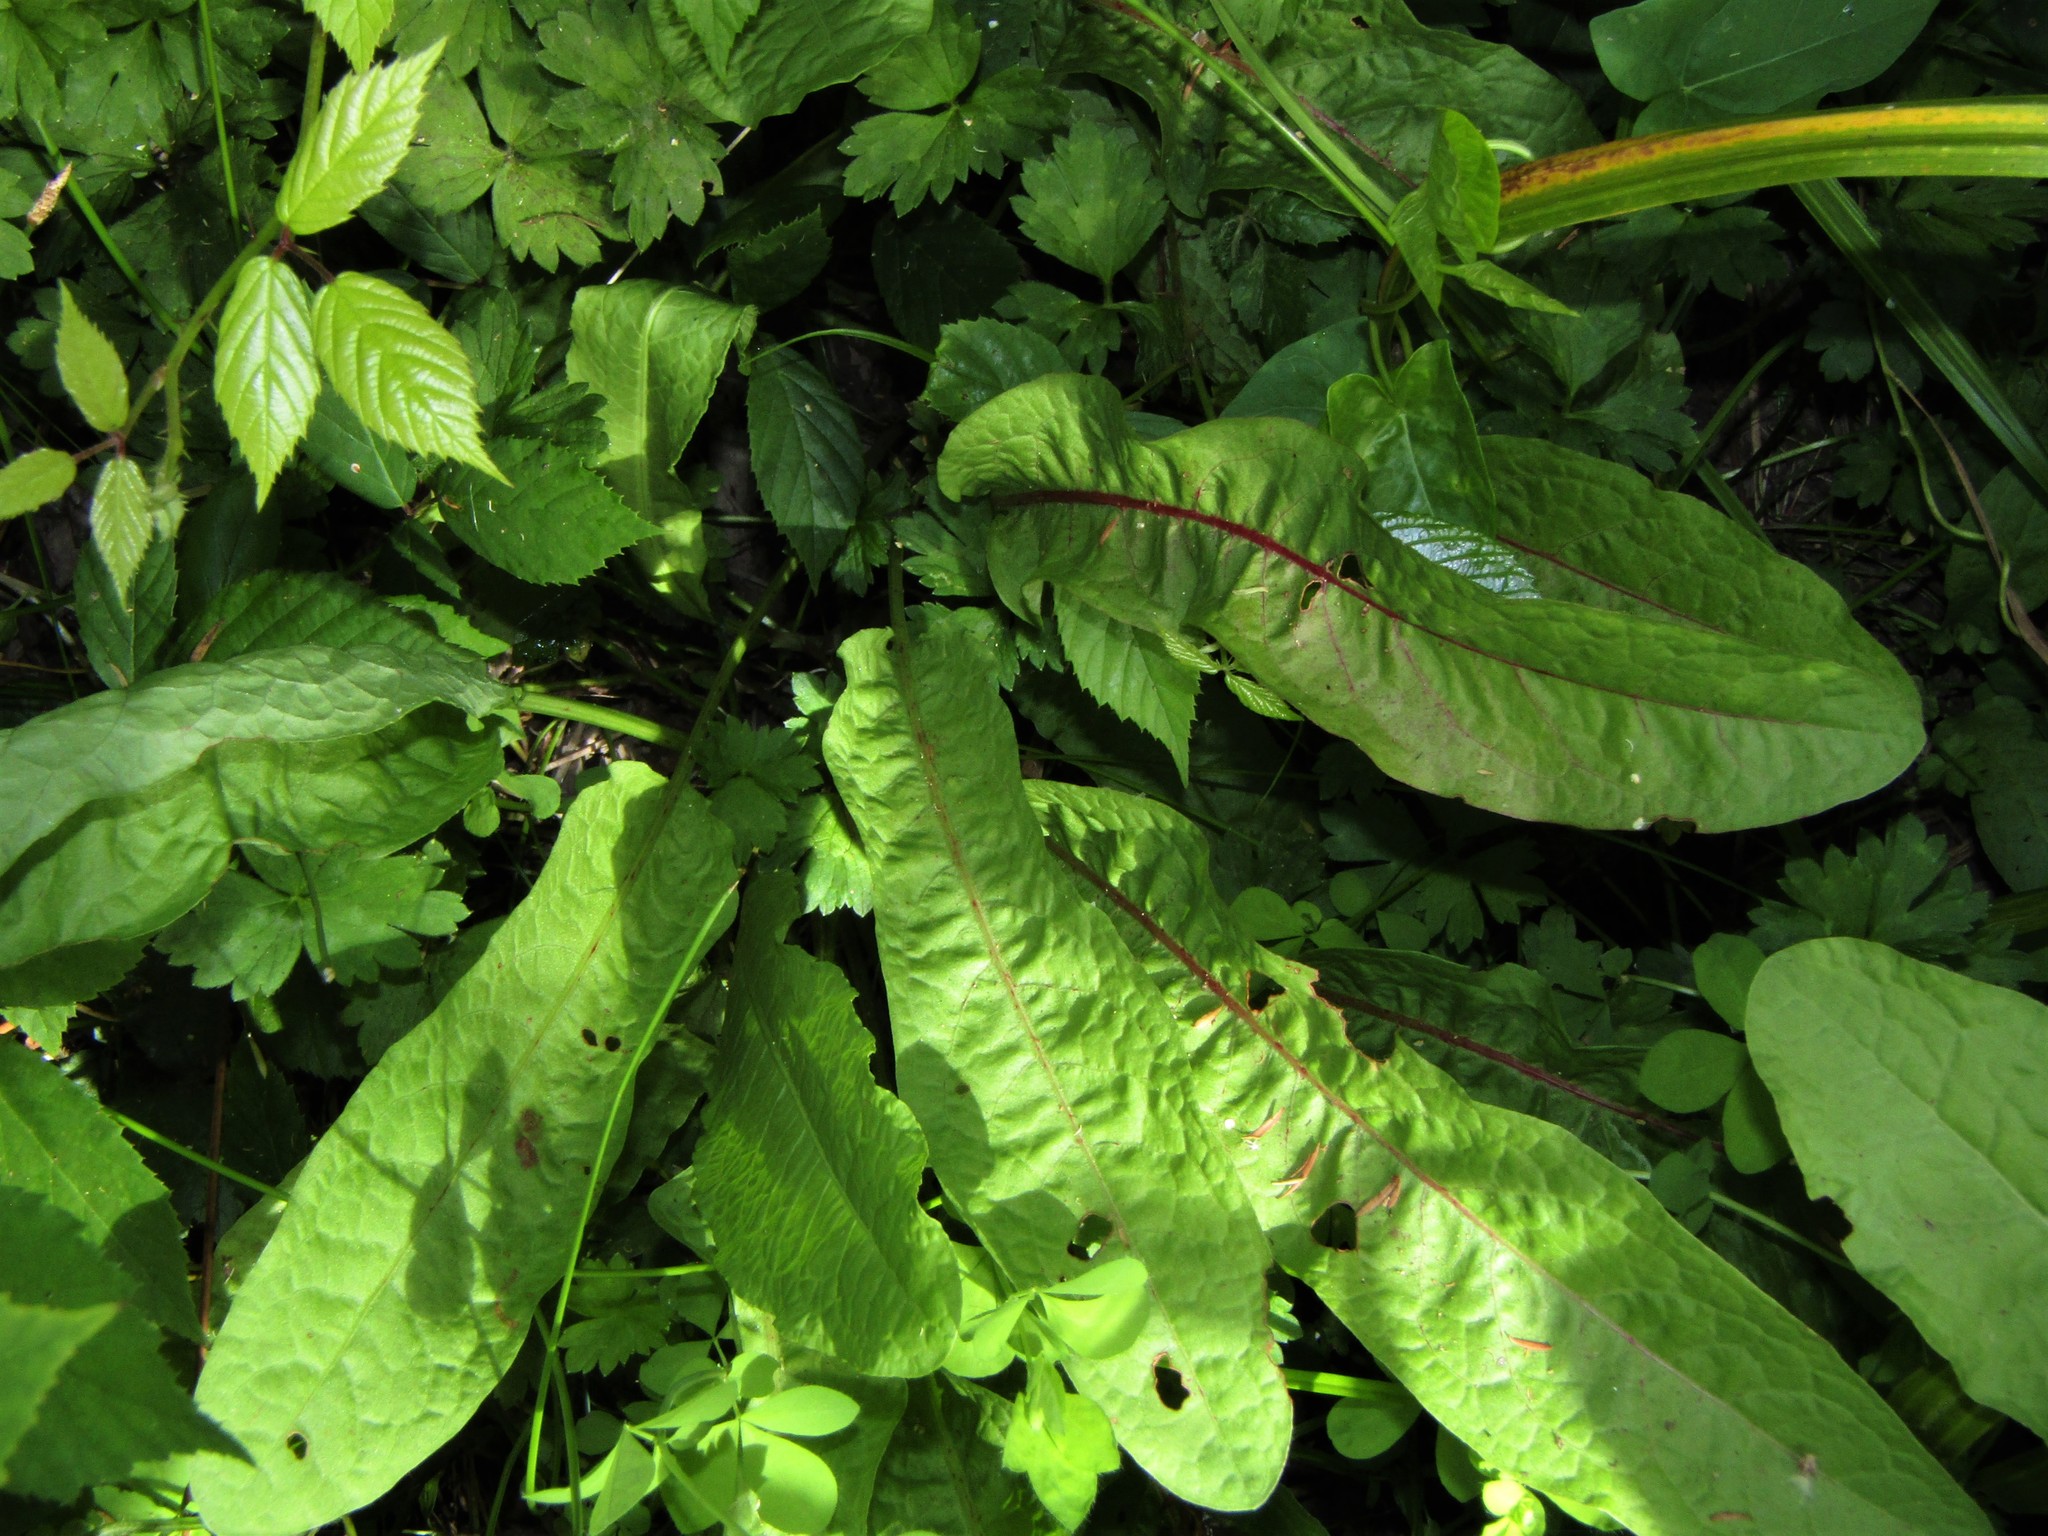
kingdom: Plantae
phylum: Tracheophyta
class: Magnoliopsida
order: Caryophyllales
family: Polygonaceae
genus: Rumex
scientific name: Rumex conglomeratus
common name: Clustered dock
